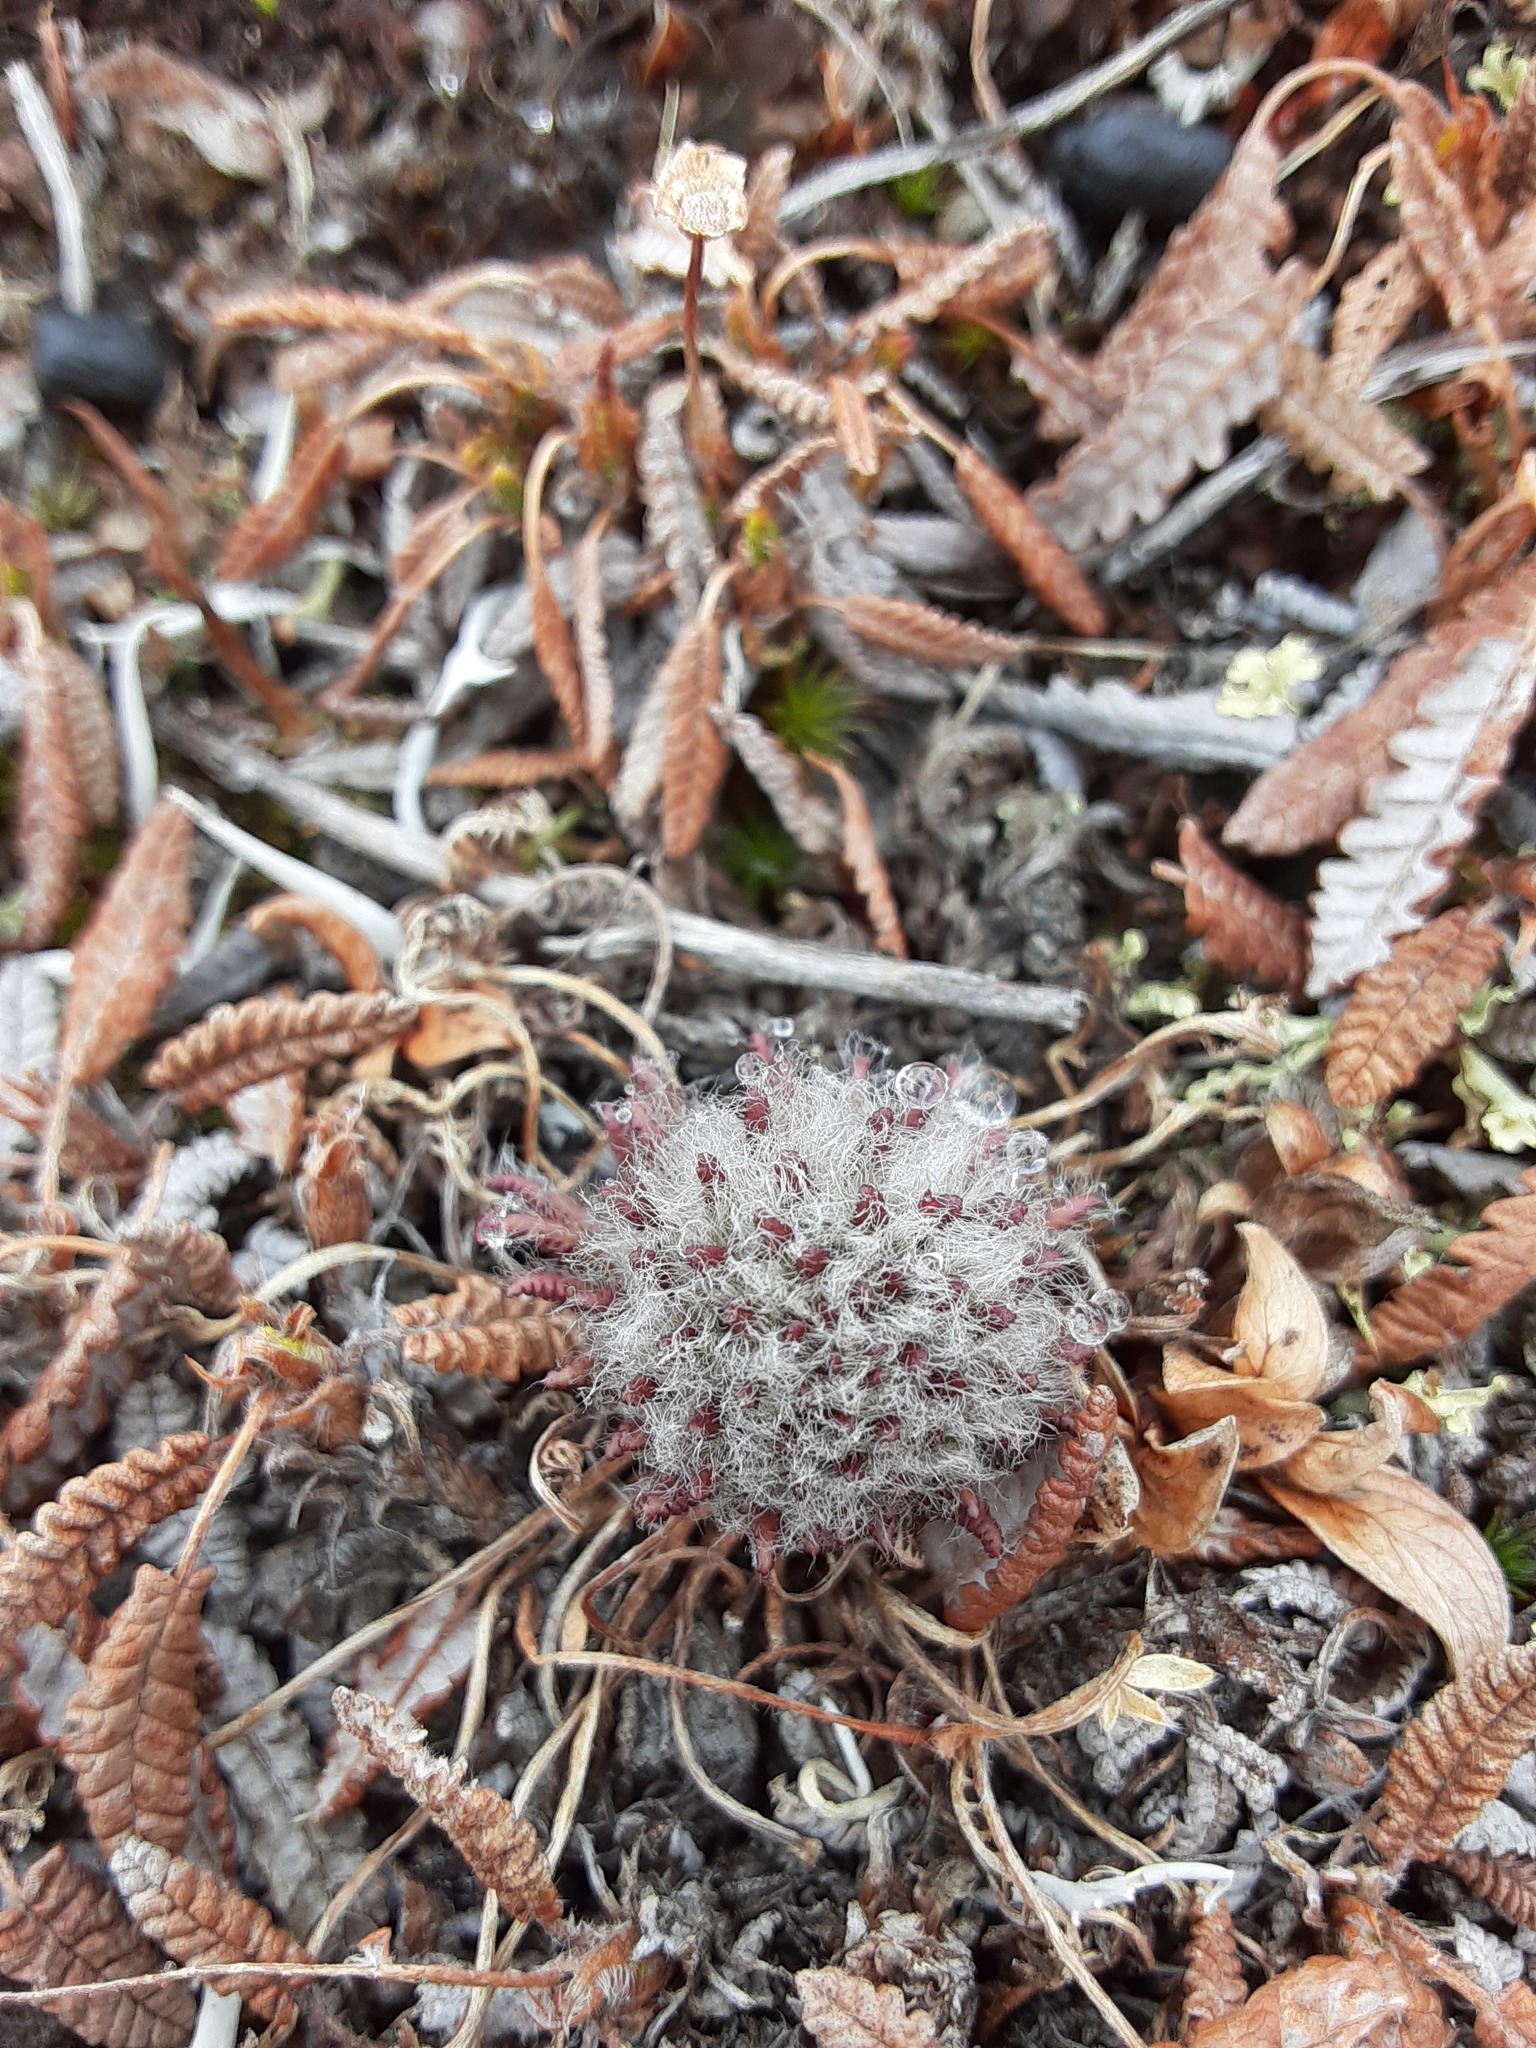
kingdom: Plantae
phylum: Tracheophyta
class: Magnoliopsida
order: Lamiales
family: Orobanchaceae
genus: Pedicularis
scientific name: Pedicularis lanata
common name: Woolly lousewort
